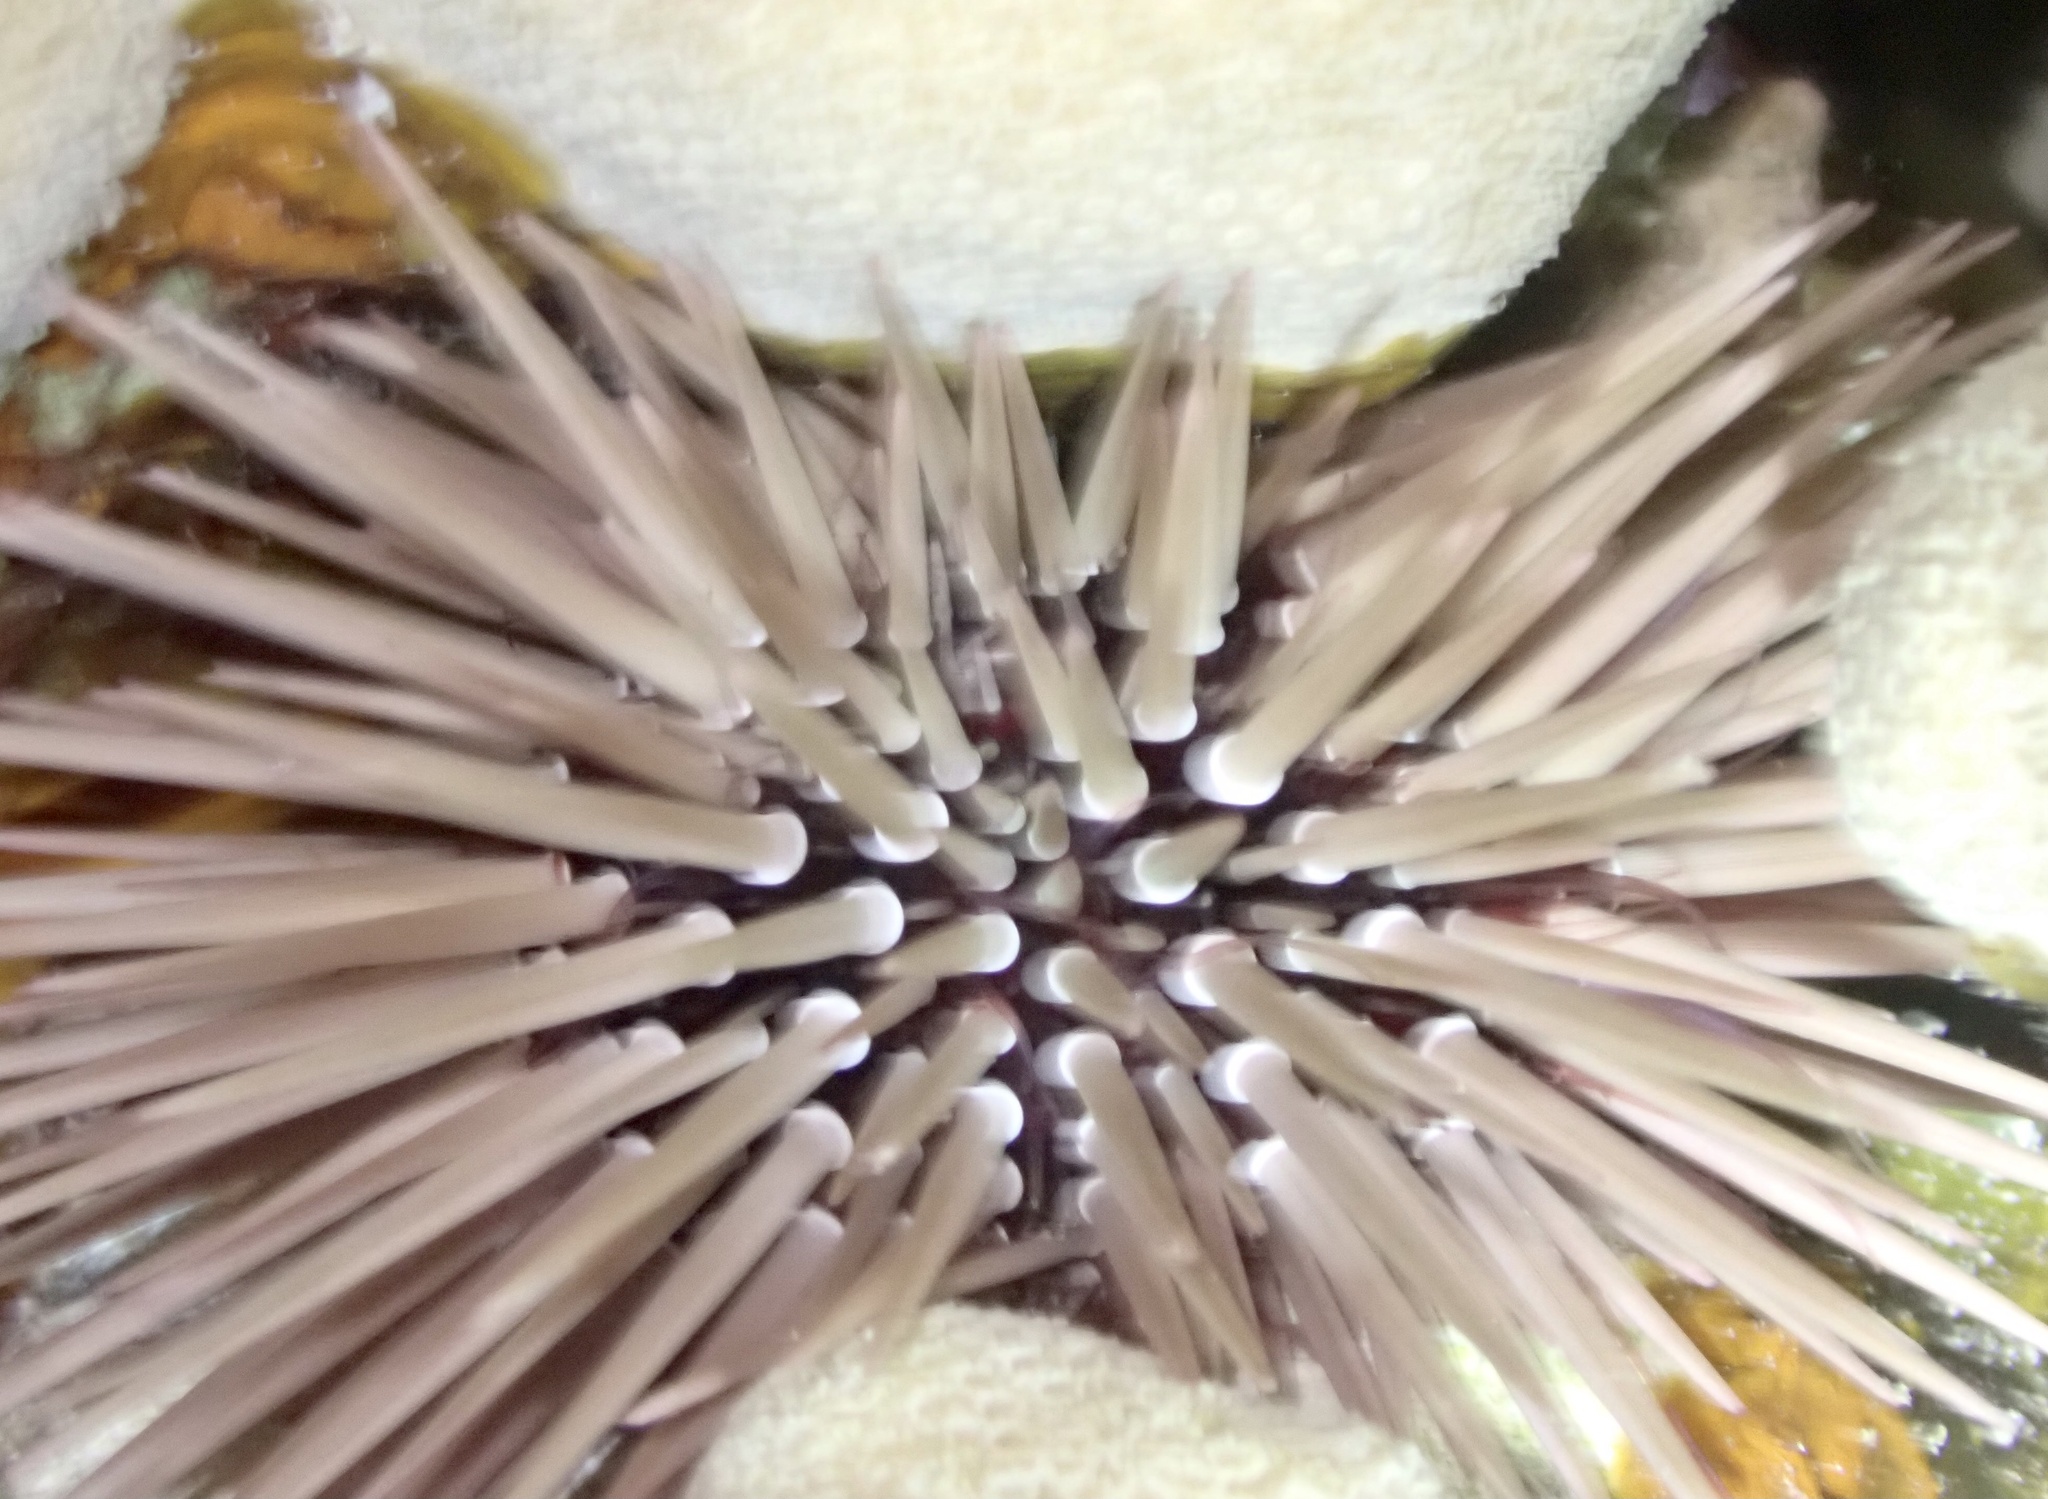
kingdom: Animalia
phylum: Echinodermata
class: Echinoidea
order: Camarodonta
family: Echinometridae
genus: Echinometra
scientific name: Echinometra mathaei
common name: Rock-boring urchin
